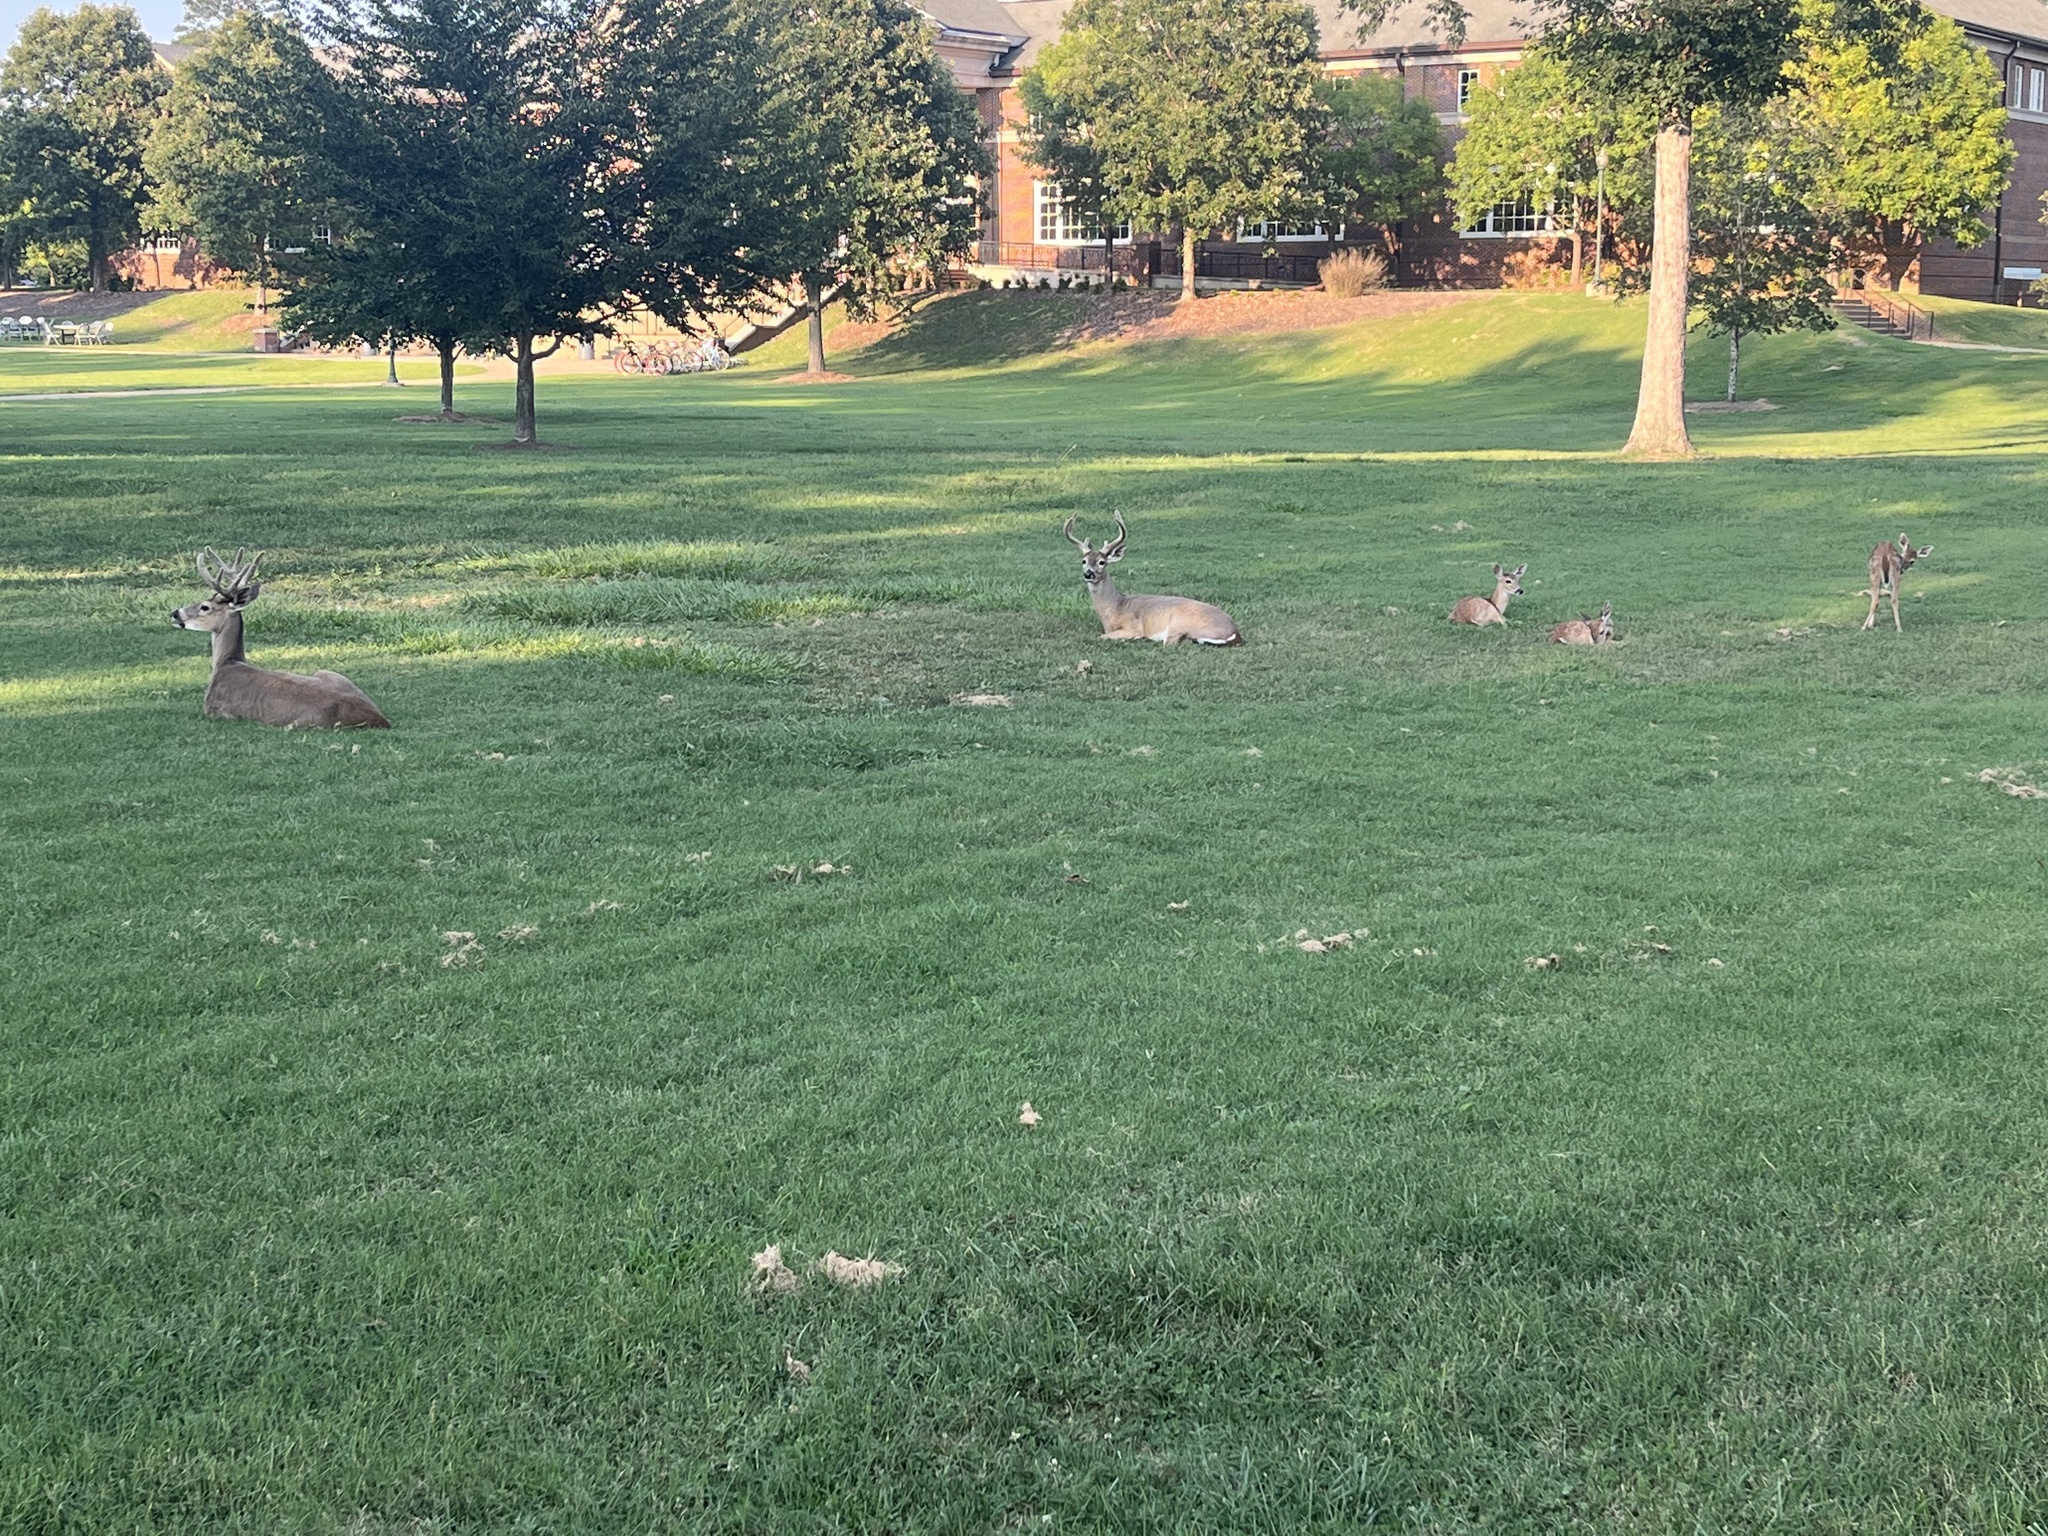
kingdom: Animalia
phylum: Chordata
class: Mammalia
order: Artiodactyla
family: Cervidae
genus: Odocoileus
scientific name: Odocoileus virginianus
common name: White-tailed deer
